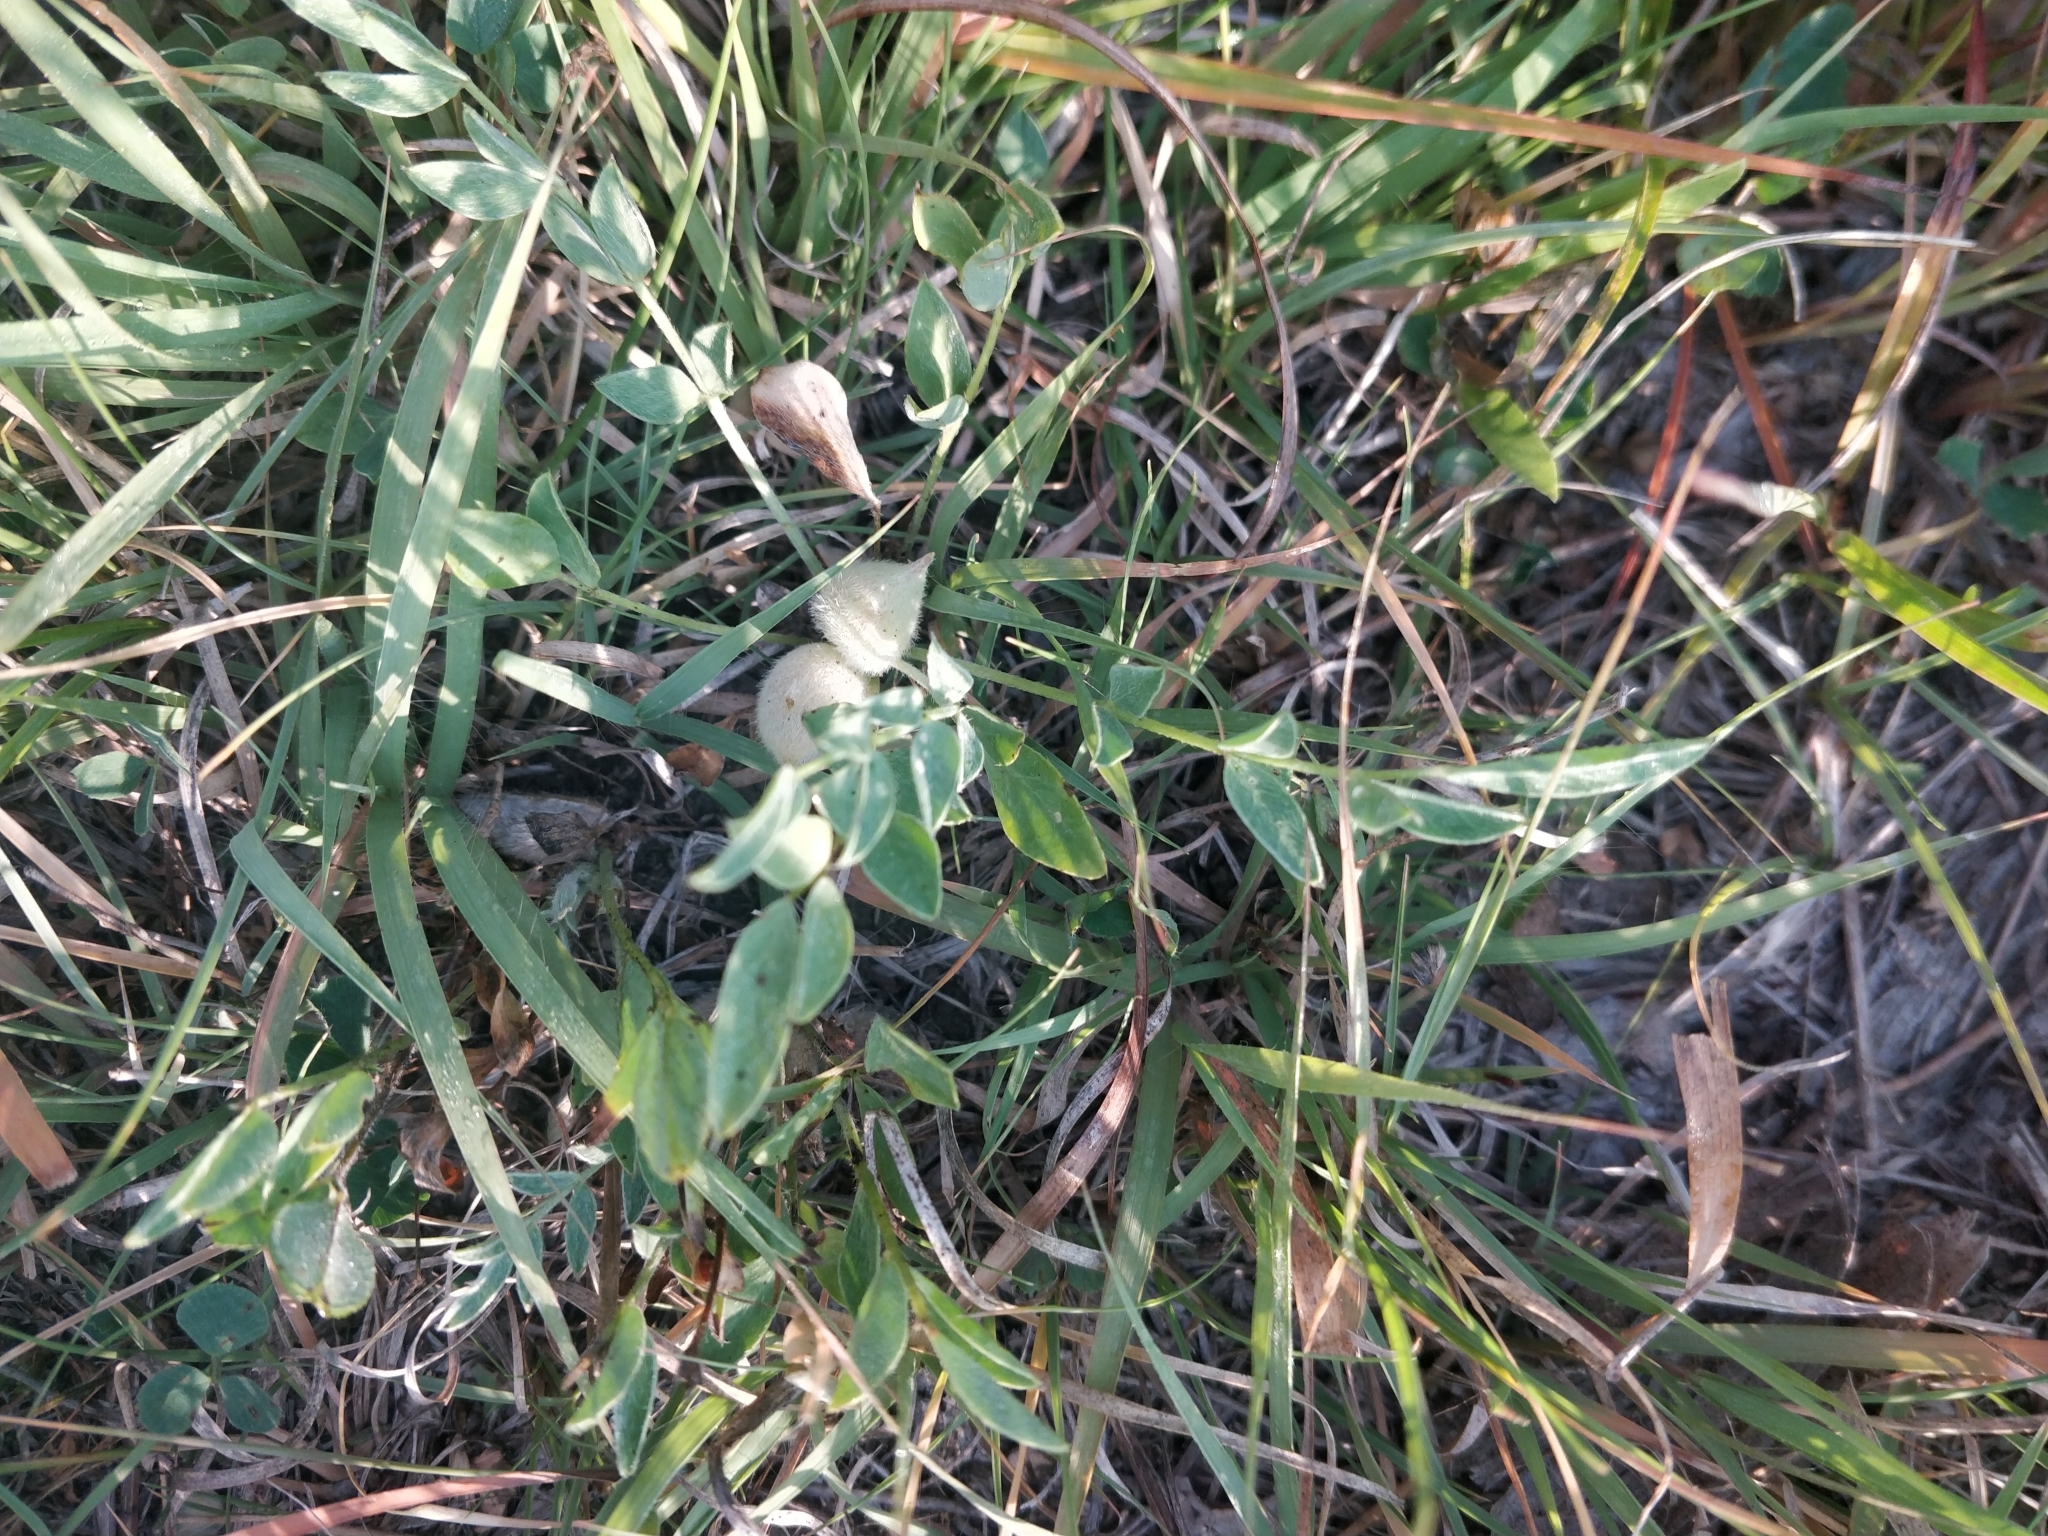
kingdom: Plantae
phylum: Tracheophyta
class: Magnoliopsida
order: Fabales
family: Fabaceae
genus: Astragalus
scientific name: Astragalus lotiflorus
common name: Lotus milk-vetch
